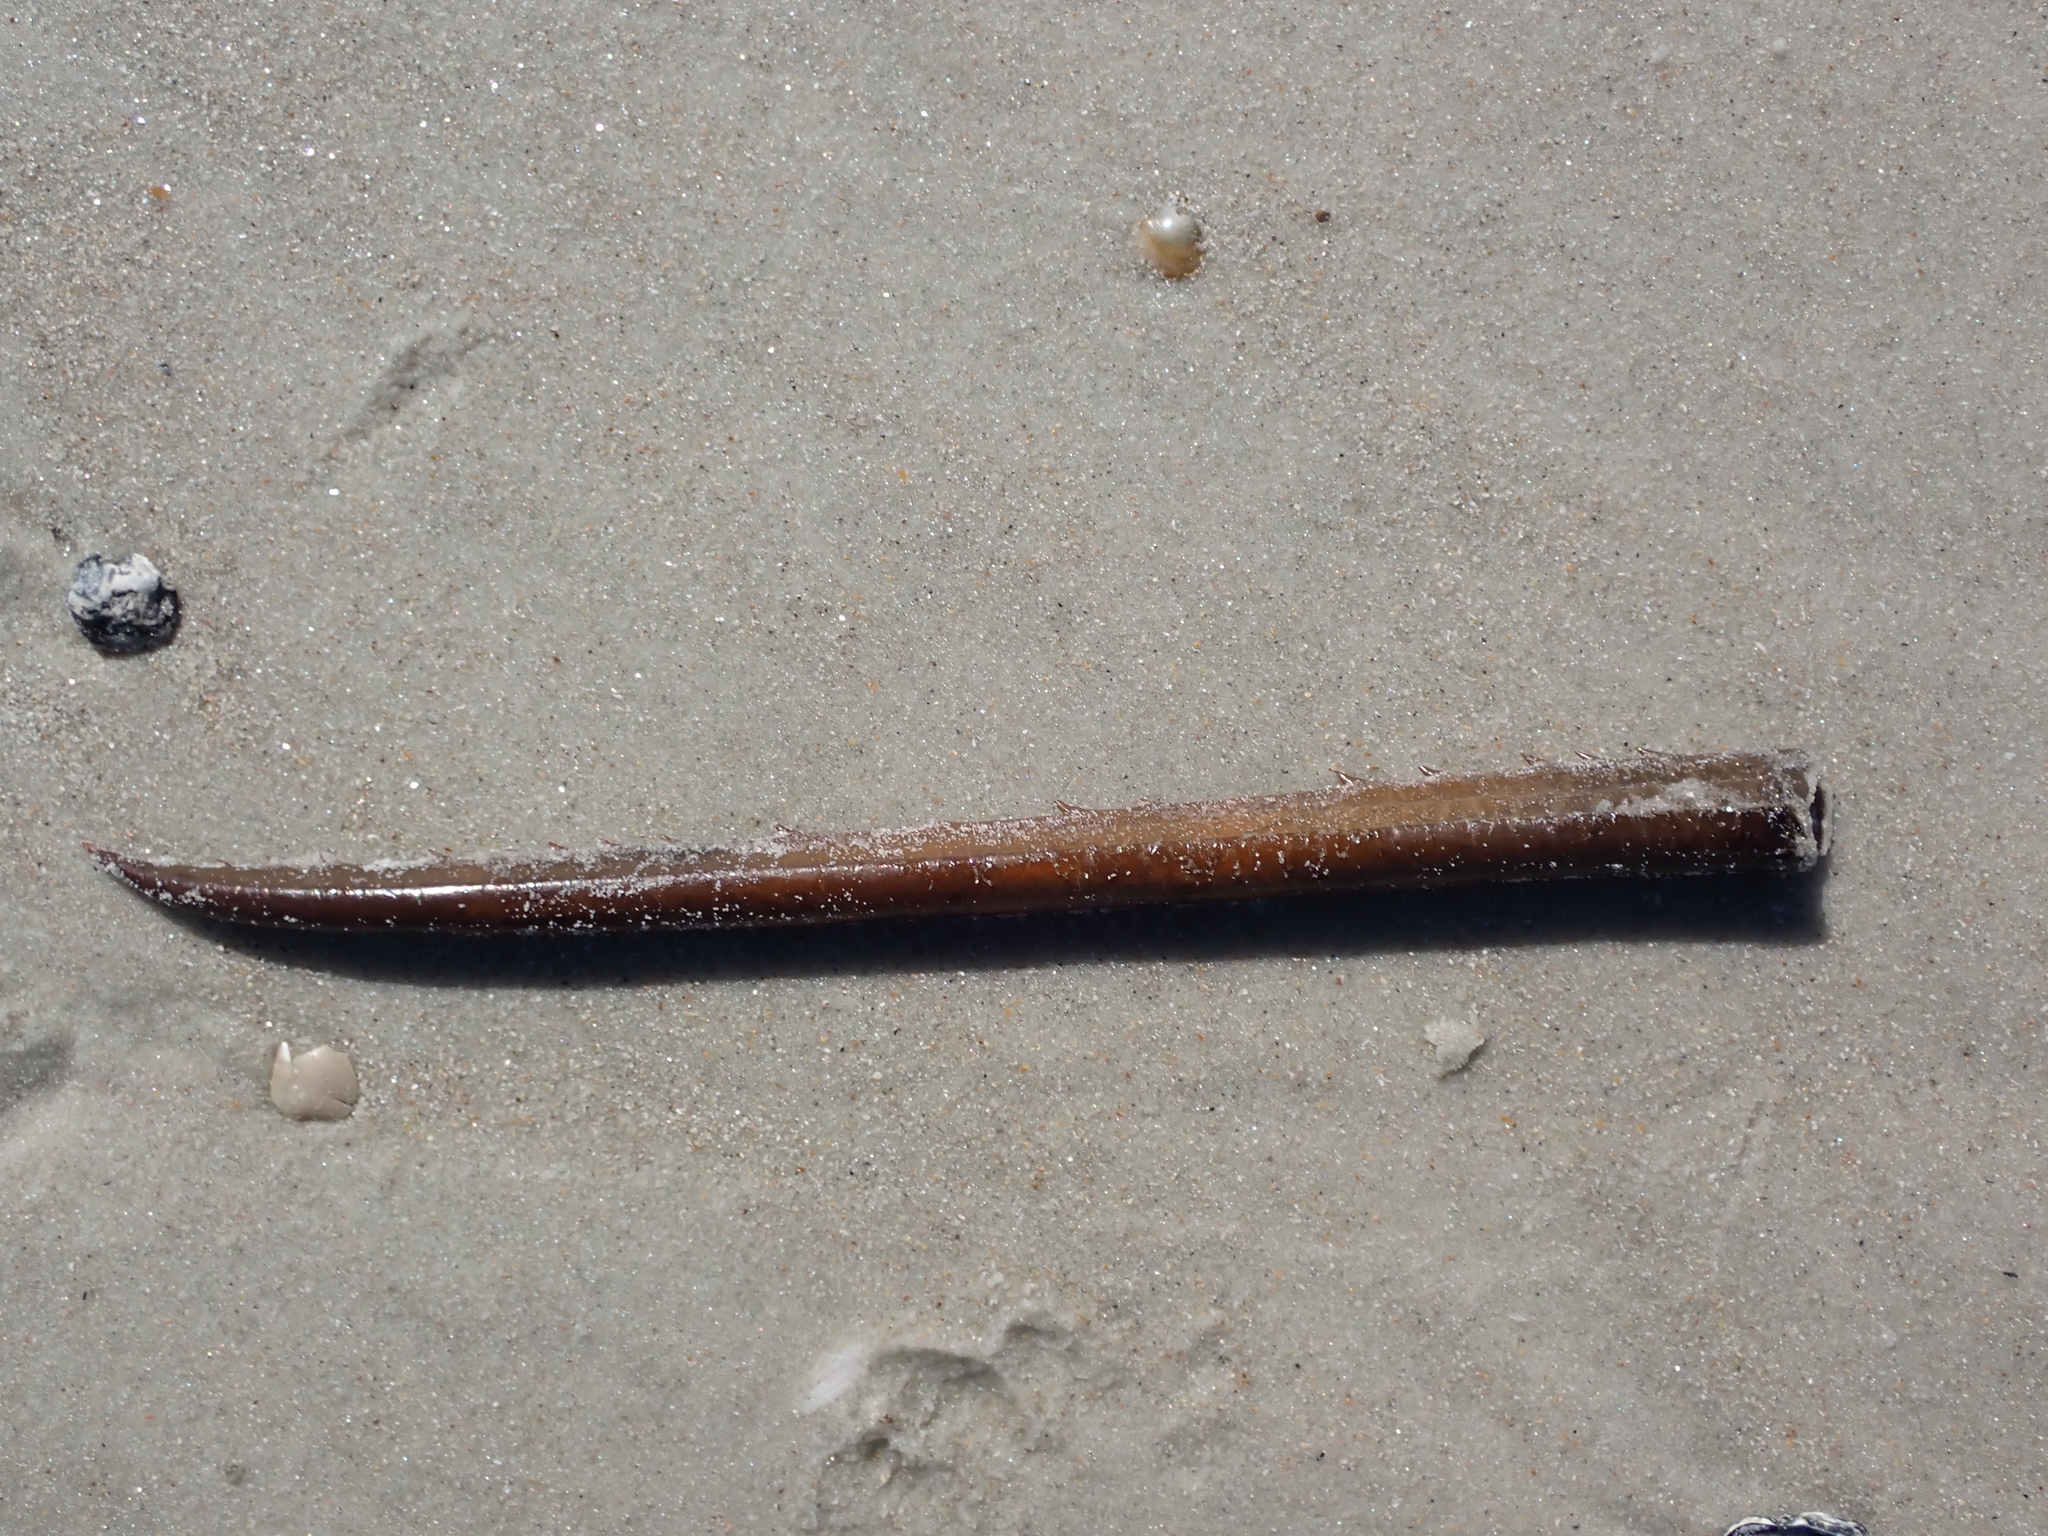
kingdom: Animalia
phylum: Arthropoda
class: Merostomata
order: Xiphosurida
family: Limulidae
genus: Limulus
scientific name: Limulus polyphemus
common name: Horseshoe crab
